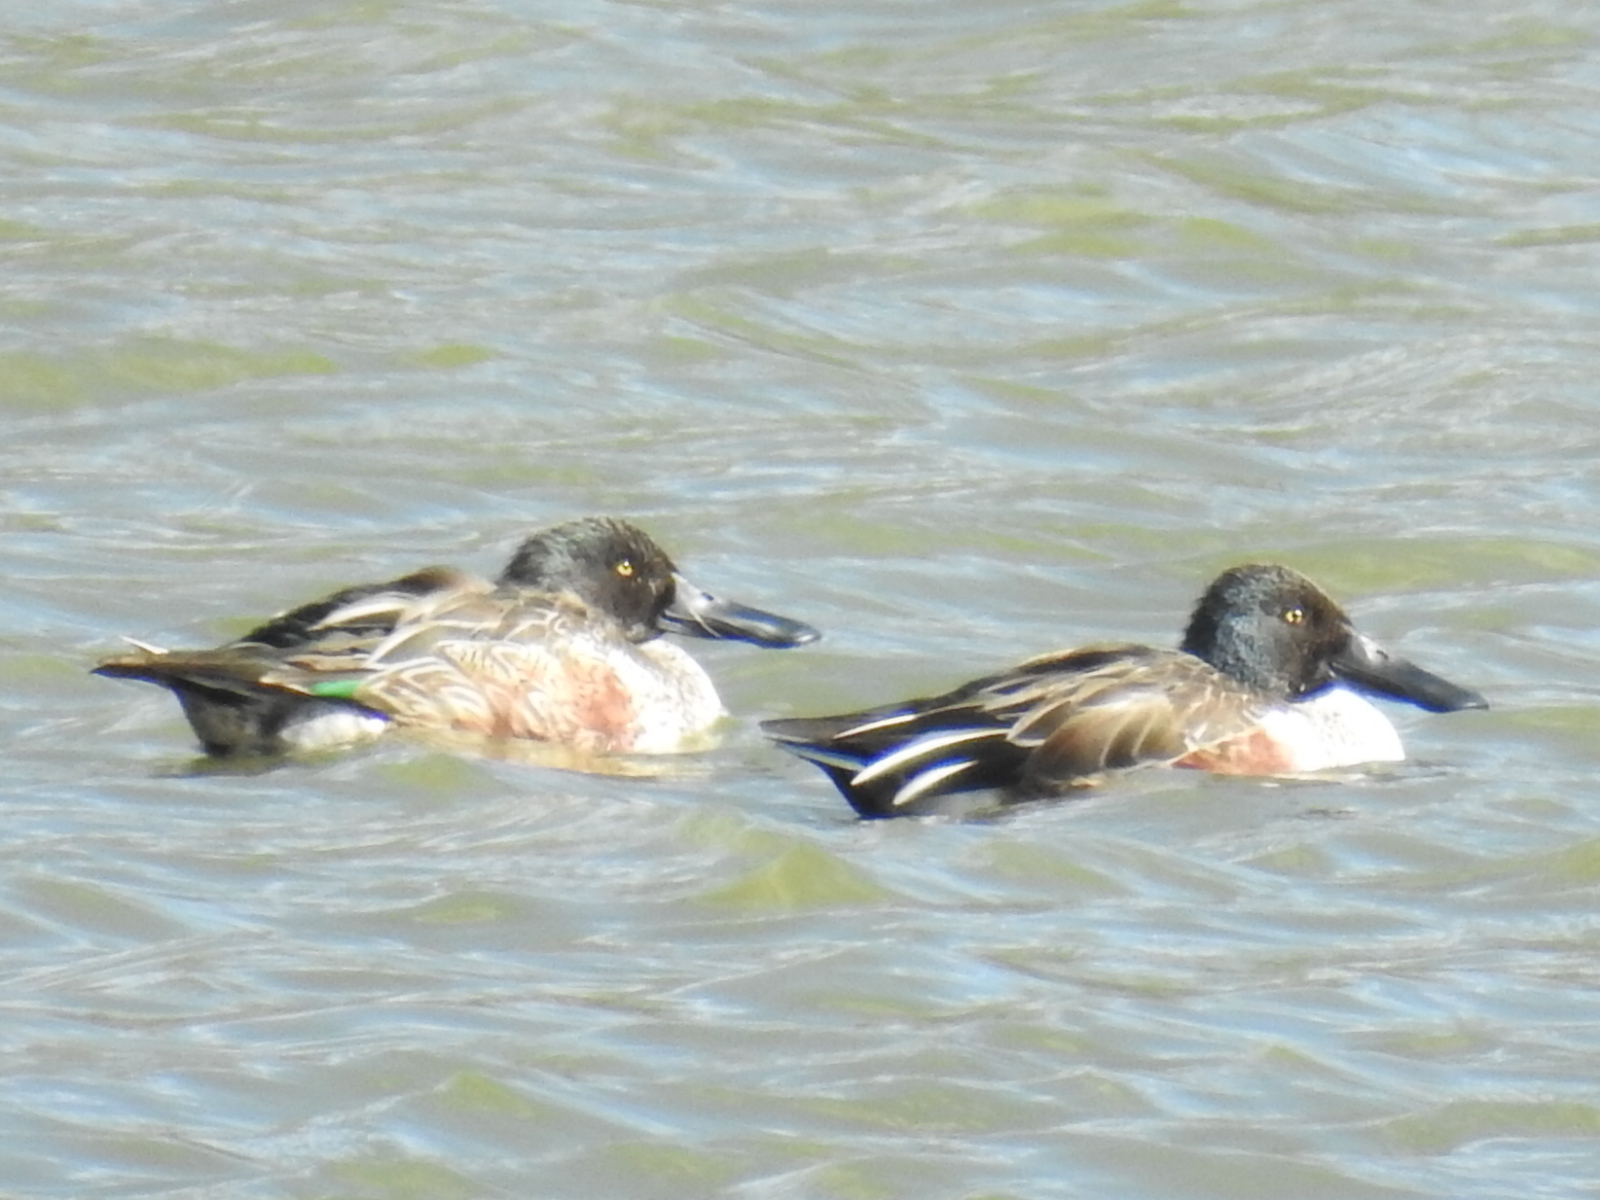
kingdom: Animalia
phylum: Chordata
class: Aves
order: Anseriformes
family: Anatidae
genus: Spatula
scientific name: Spatula clypeata
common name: Northern shoveler
